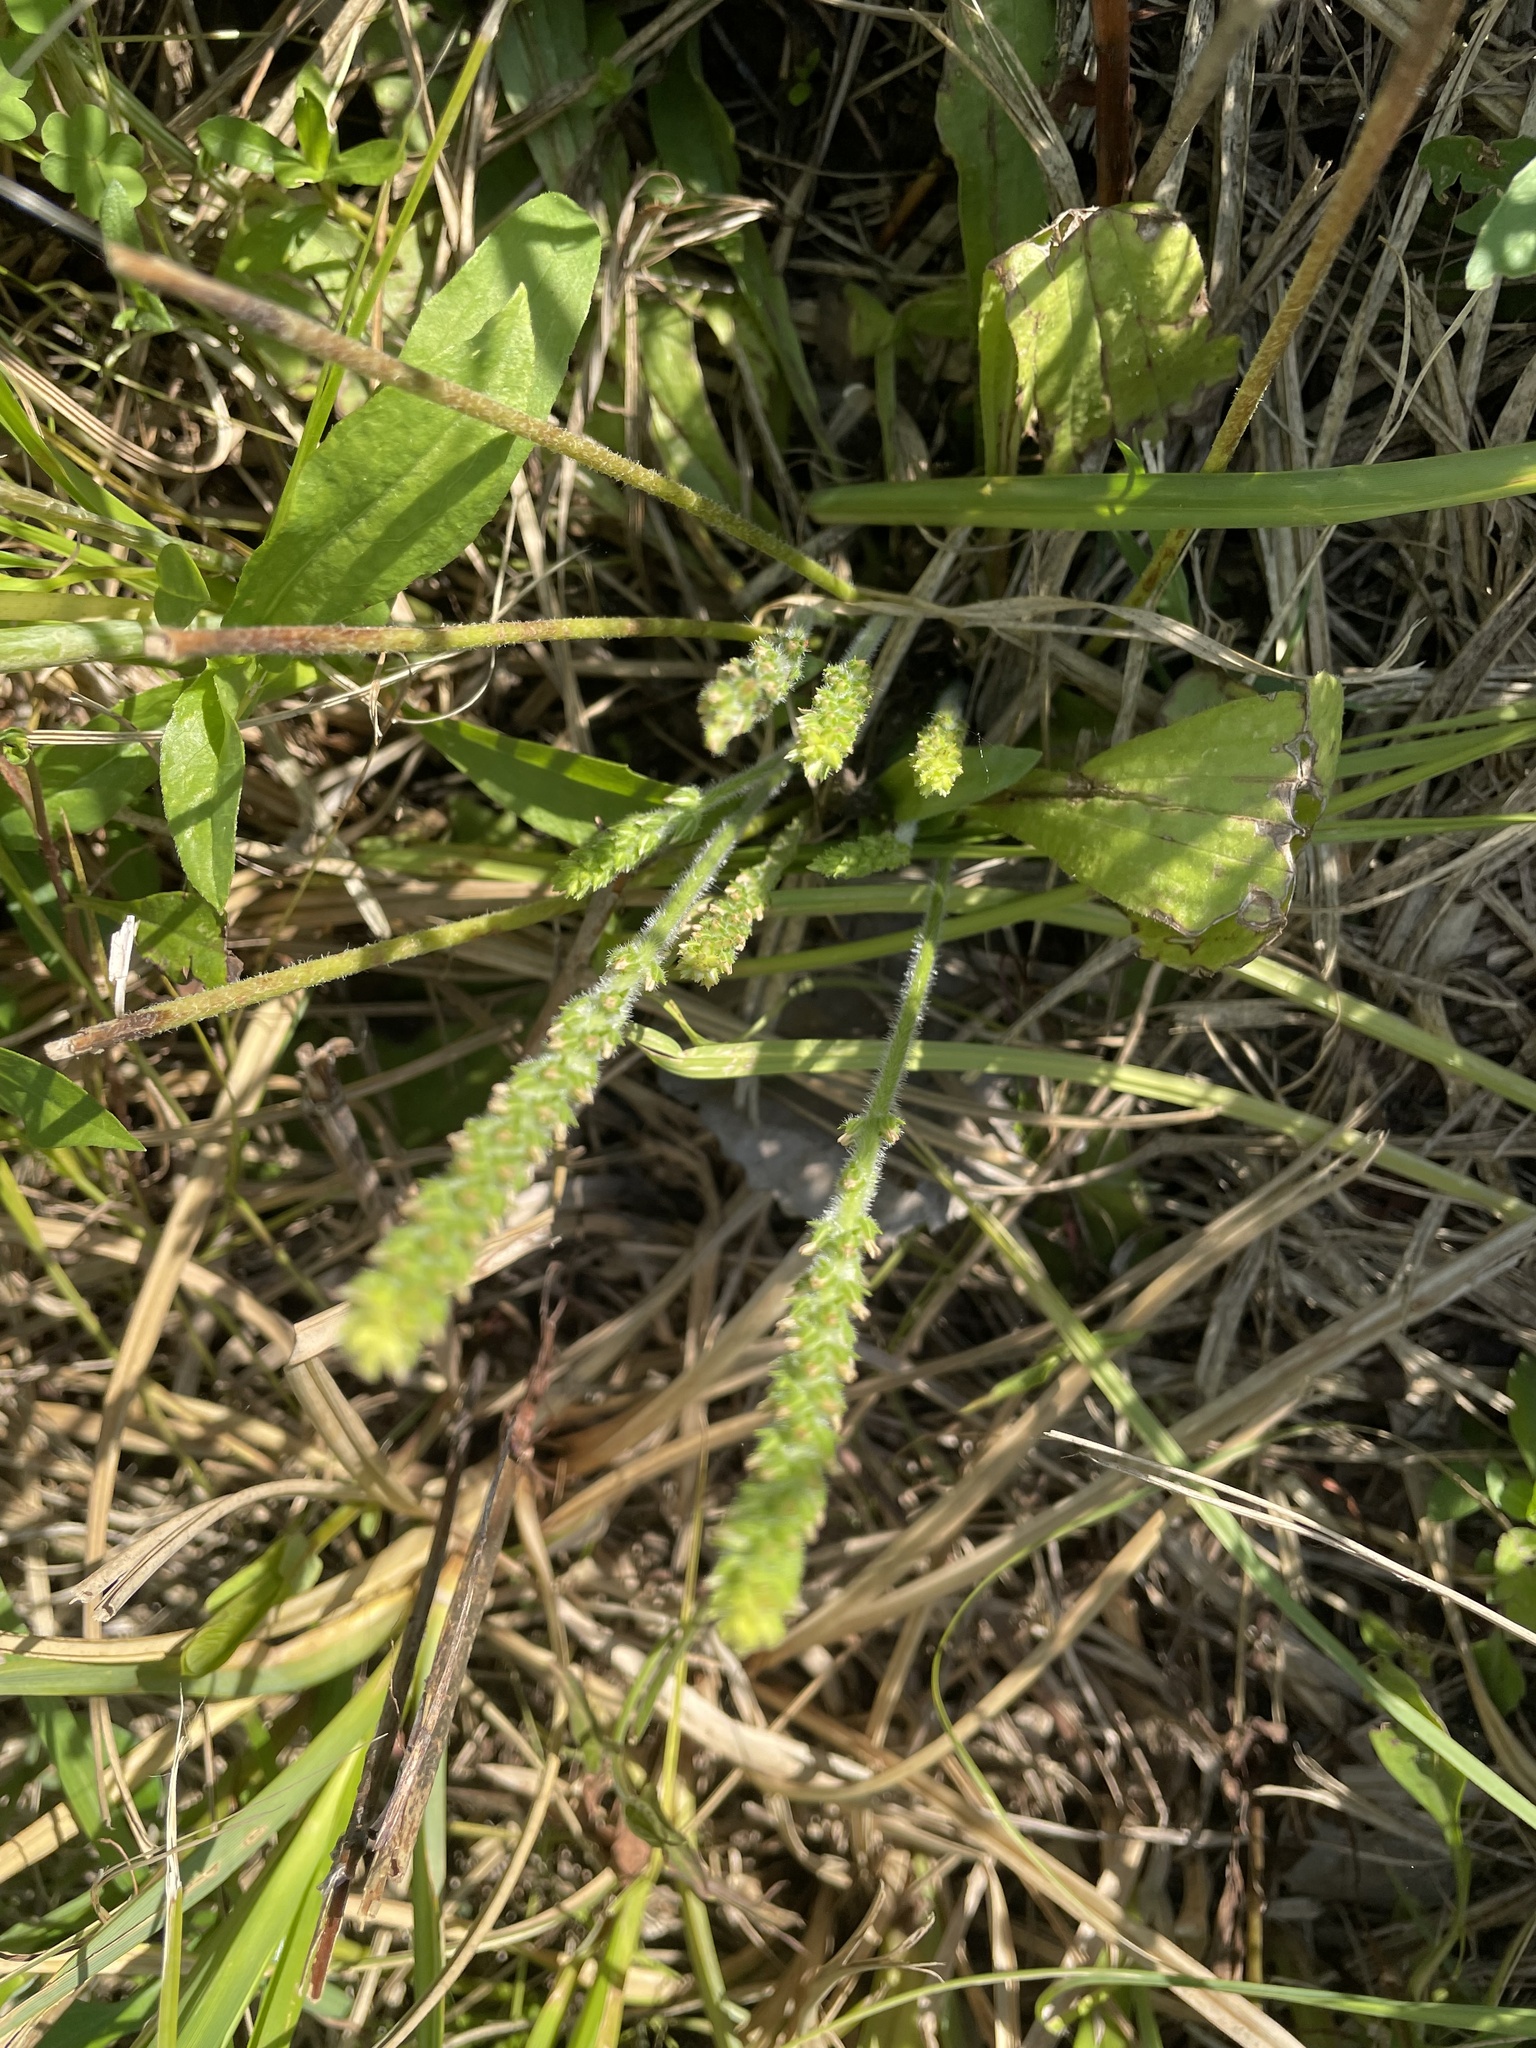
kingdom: Plantae
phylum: Tracheophyta
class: Magnoliopsida
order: Lamiales
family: Plantaginaceae
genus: Plantago
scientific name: Plantago rhodosperma
